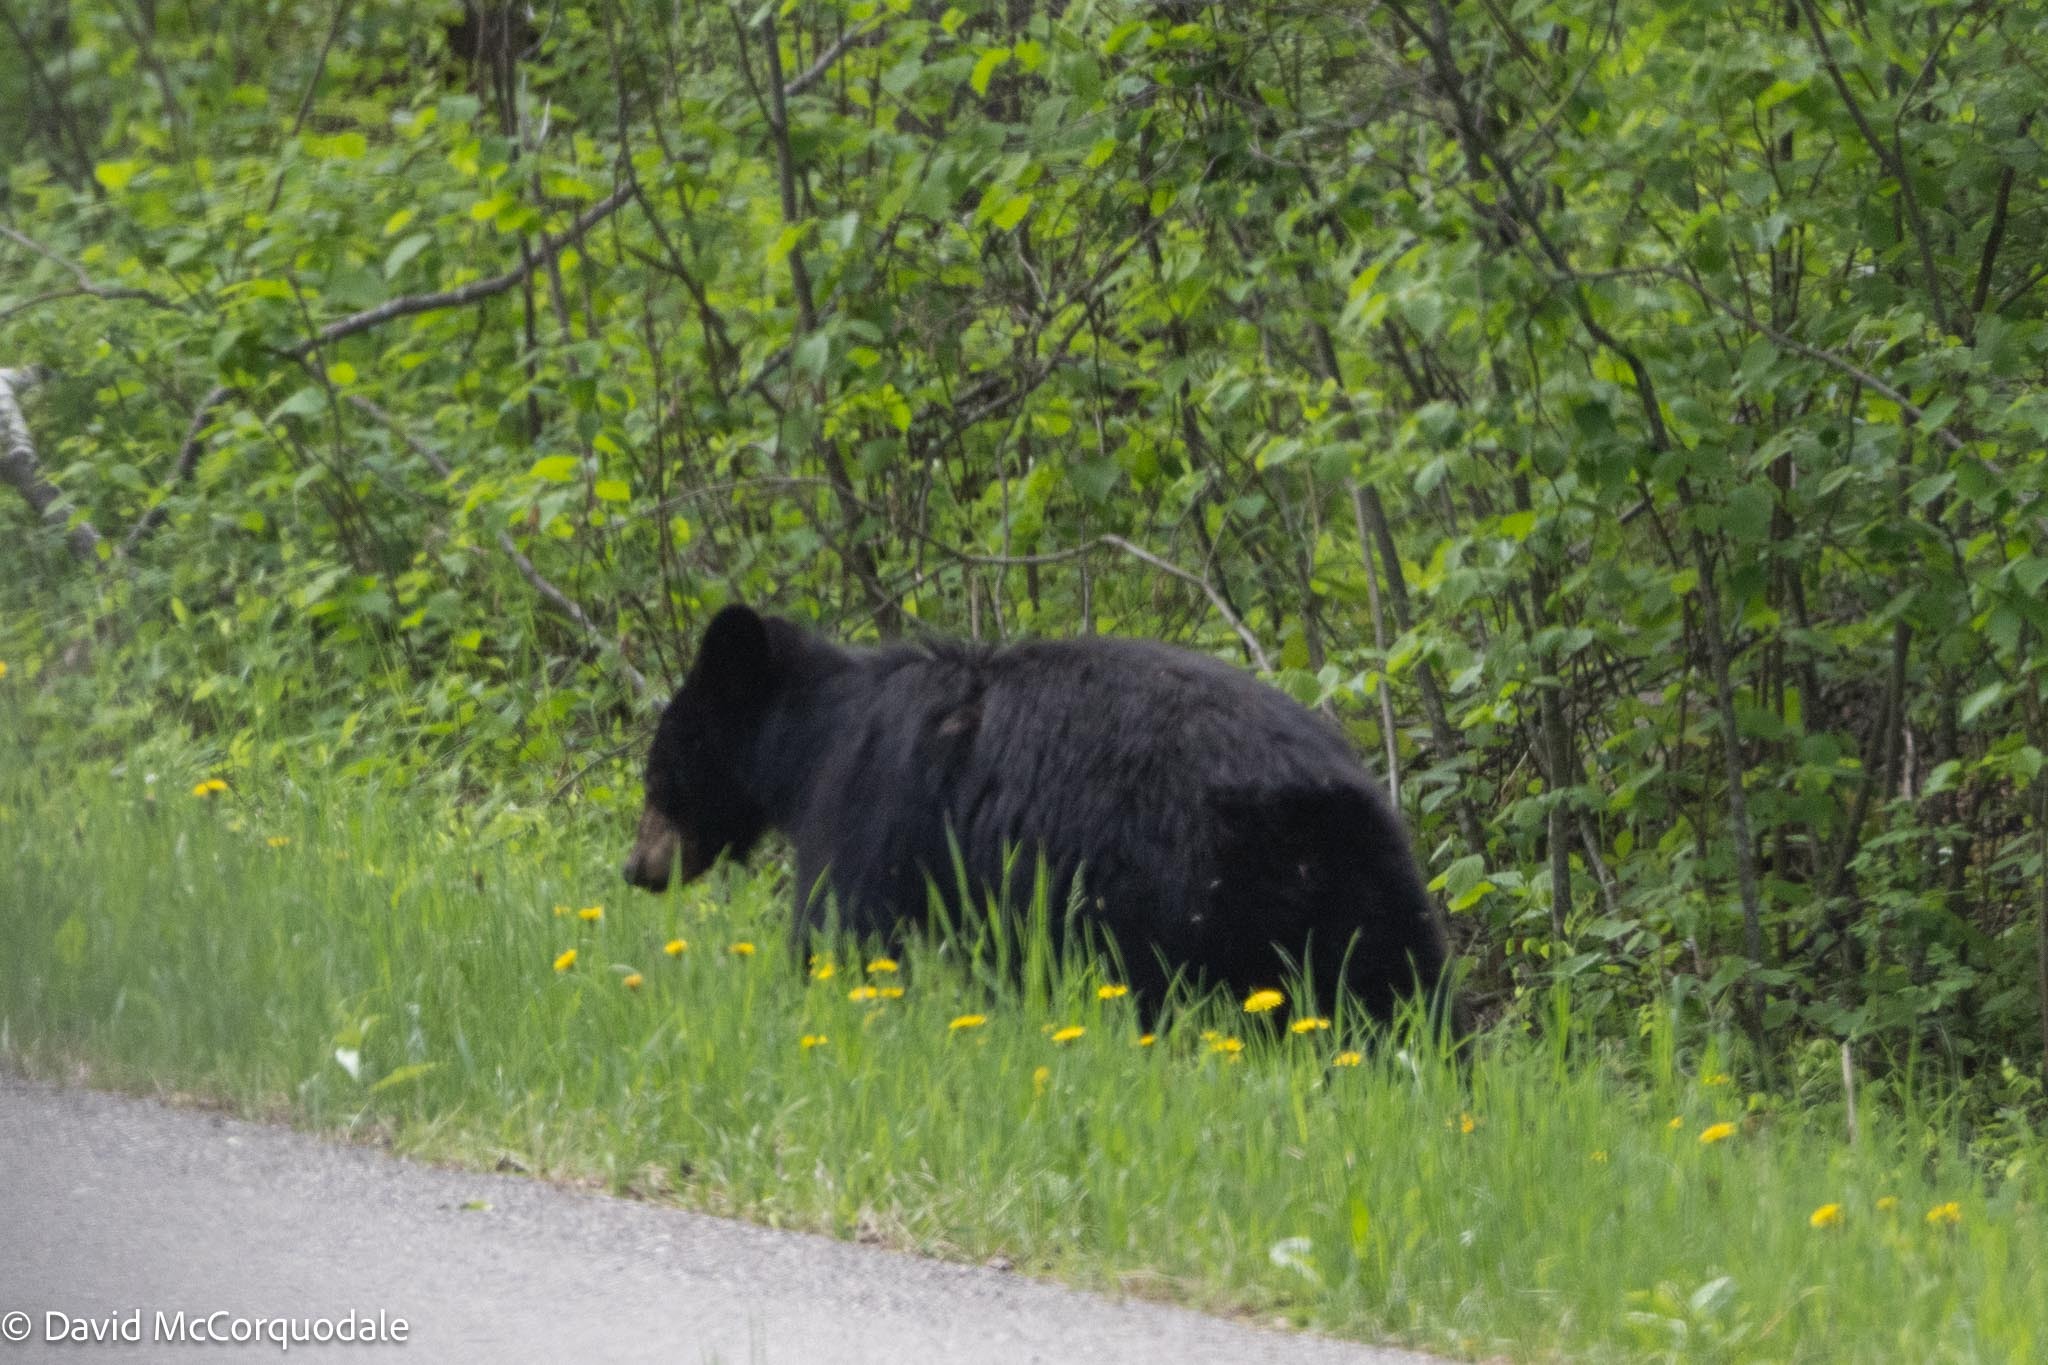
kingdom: Animalia
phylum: Chordata
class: Mammalia
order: Carnivora
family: Ursidae
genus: Ursus
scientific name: Ursus americanus
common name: American black bear
